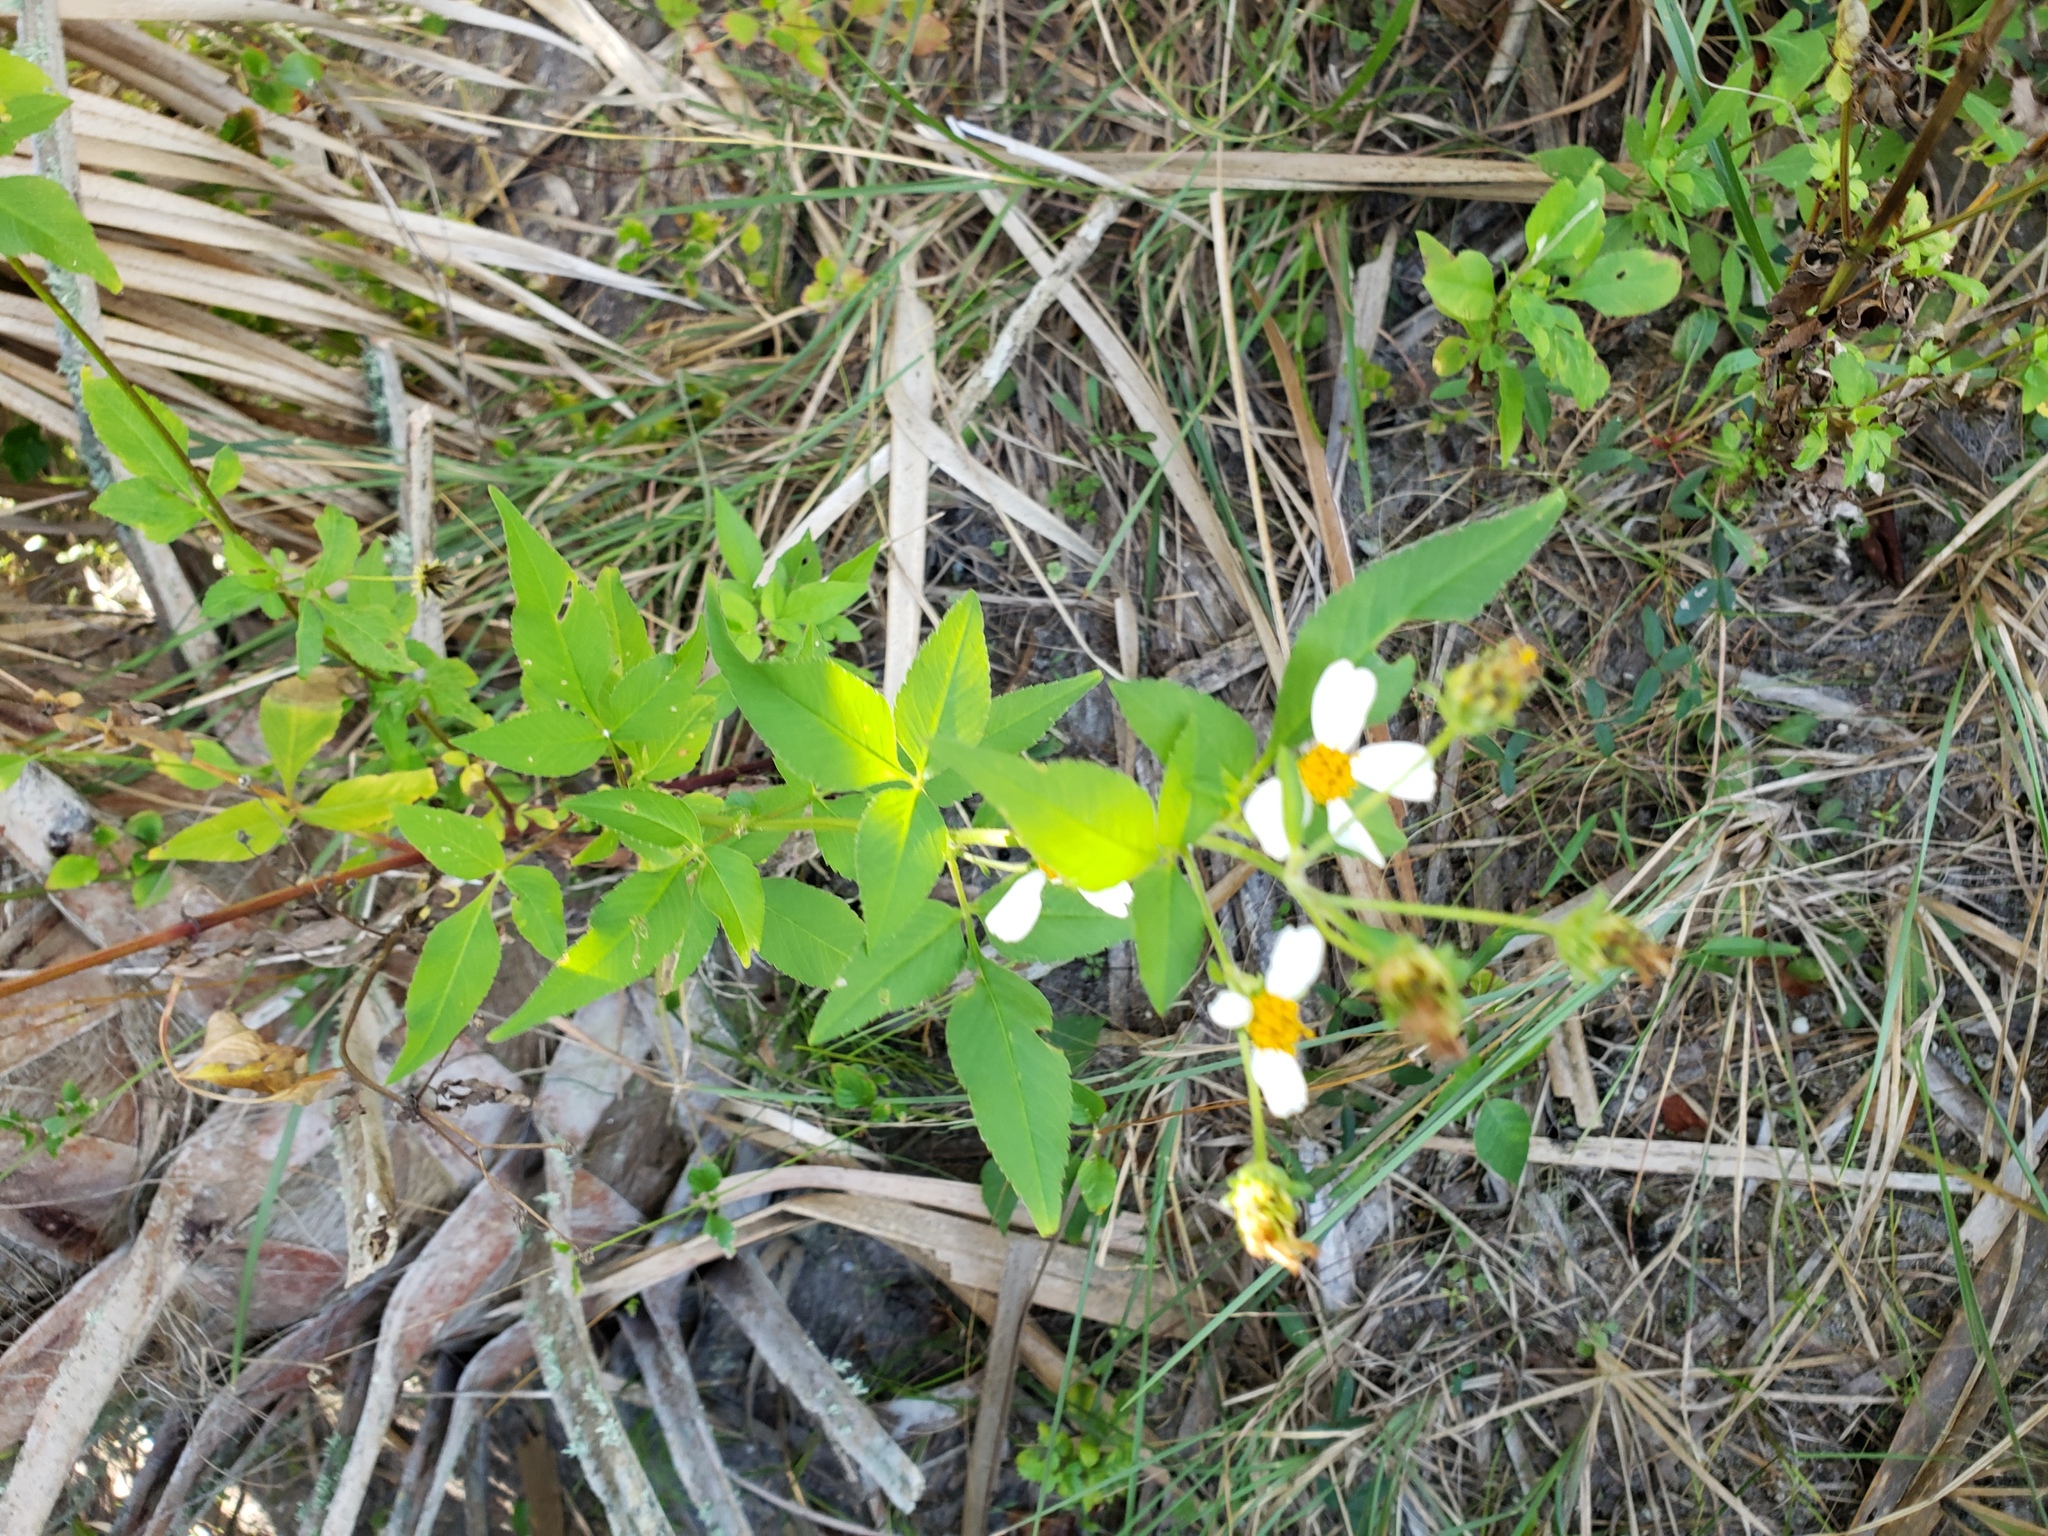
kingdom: Plantae
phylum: Tracheophyta
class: Magnoliopsida
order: Asterales
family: Asteraceae
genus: Bidens
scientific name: Bidens alba
